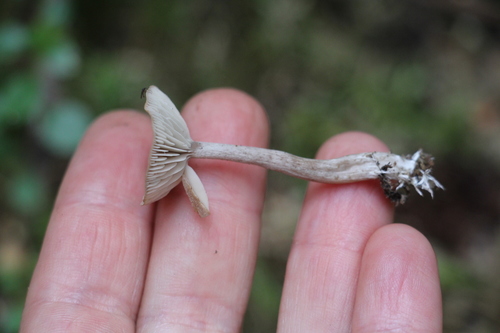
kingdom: Fungi
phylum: Basidiomycota
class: Agaricomycetes
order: Agaricales
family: Callistosporiaceae
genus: Pseudolaccaria
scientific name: Pseudolaccaria pachyphylla
